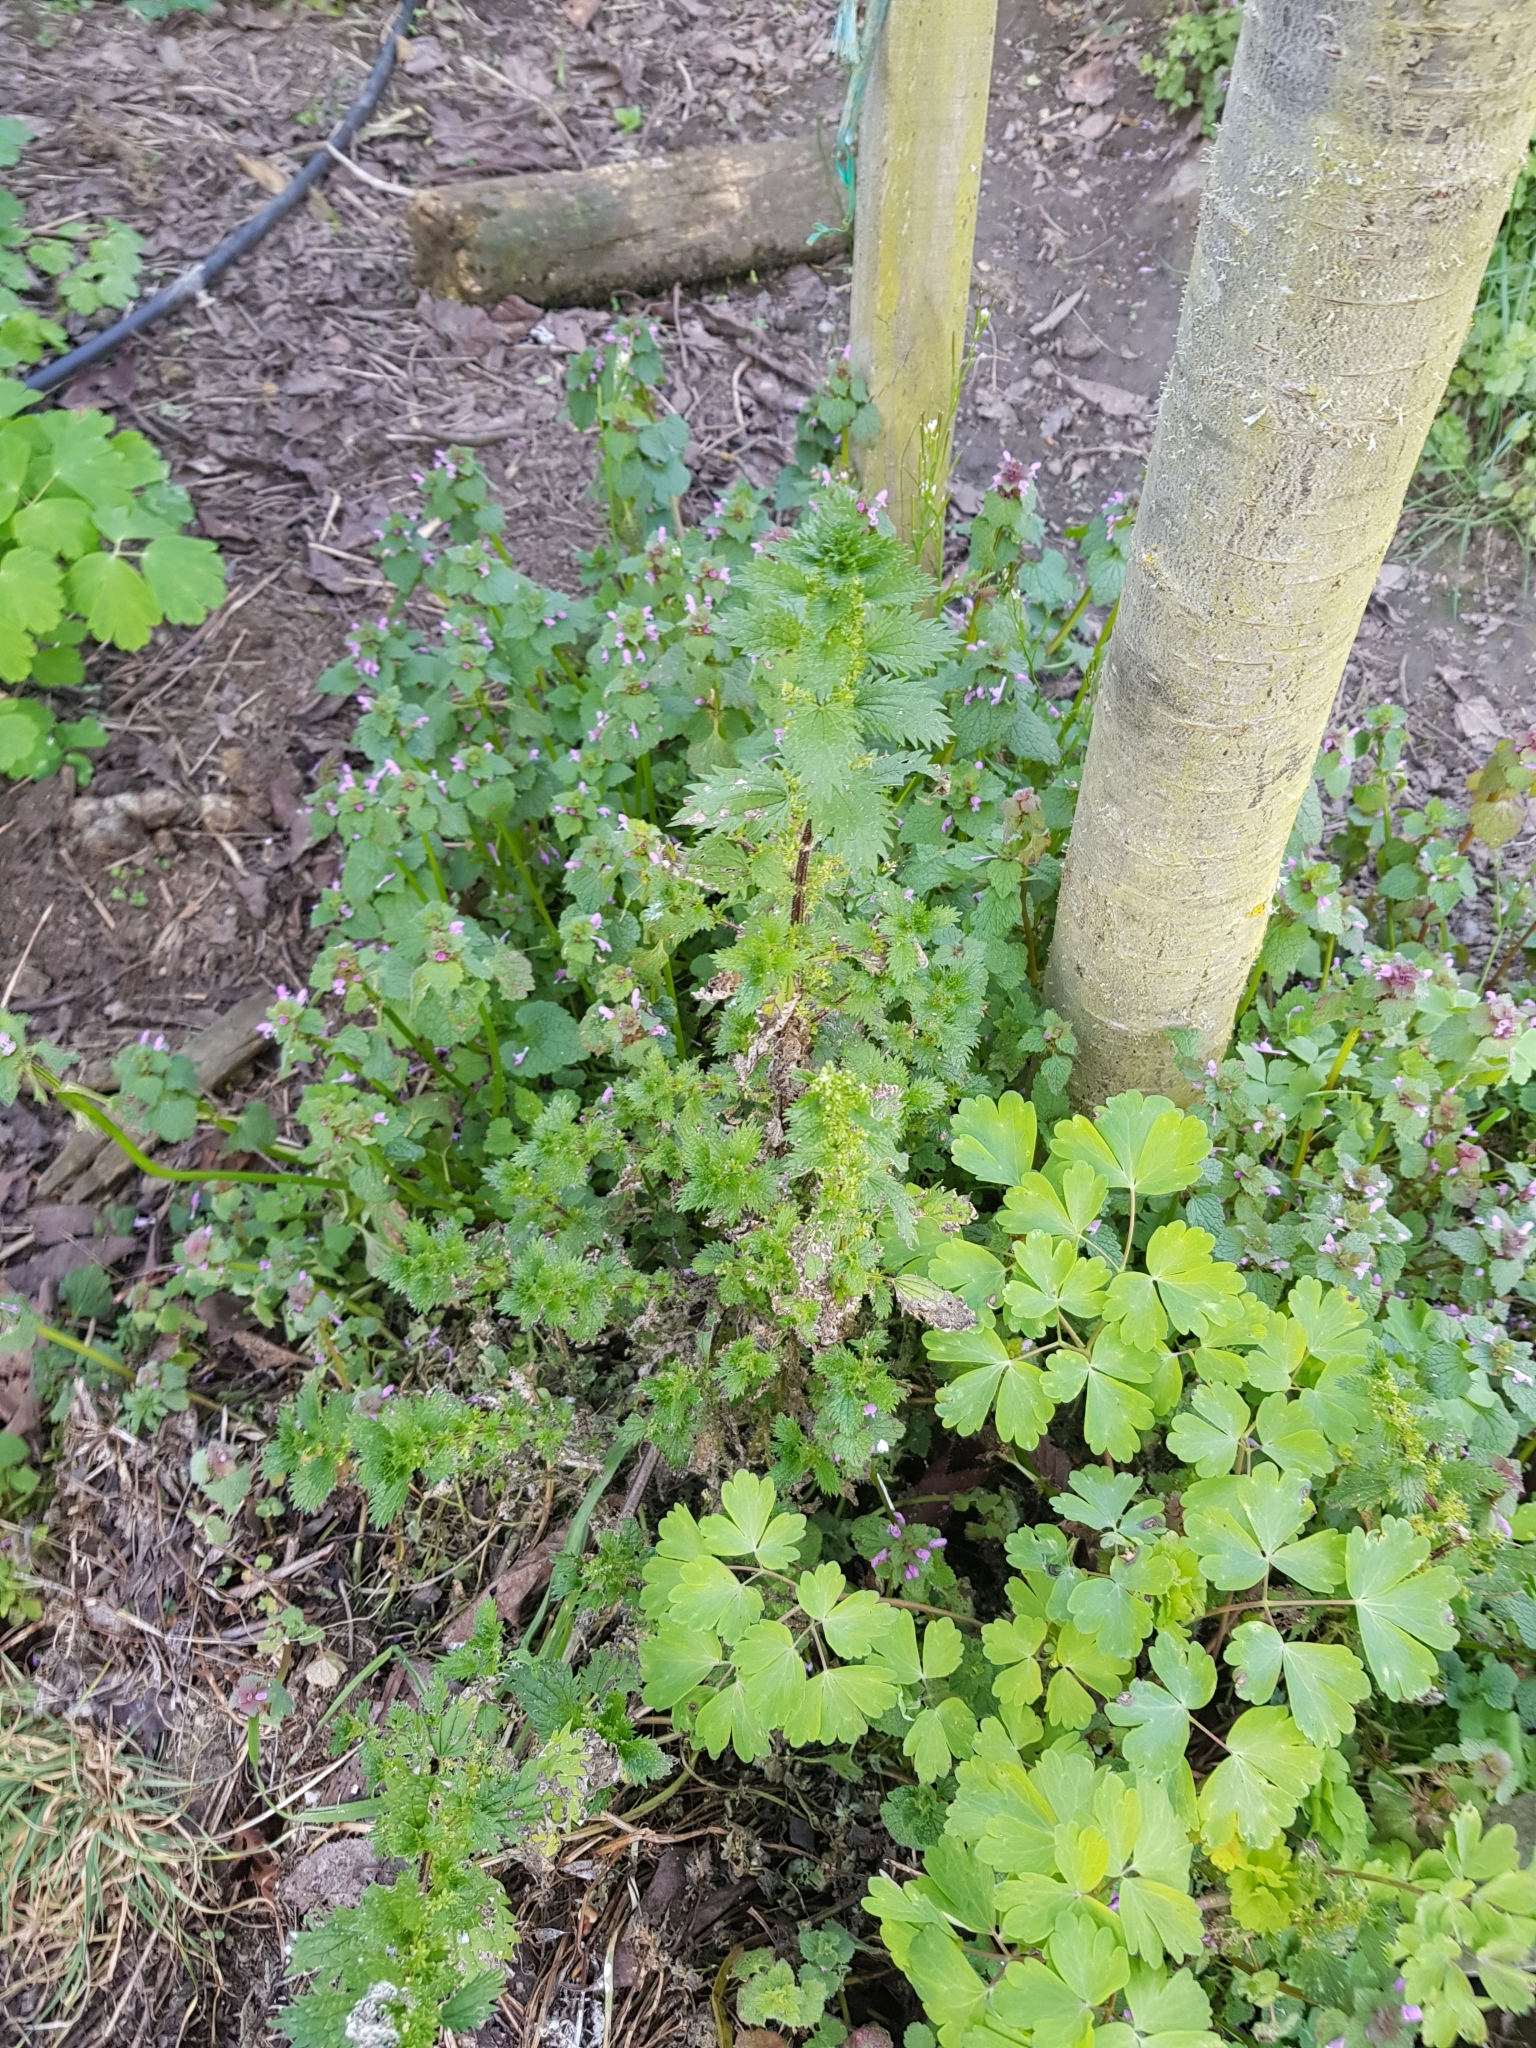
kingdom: Plantae
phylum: Tracheophyta
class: Magnoliopsida
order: Rosales
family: Urticaceae
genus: Urtica
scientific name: Urtica urens
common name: Dwarf nettle
